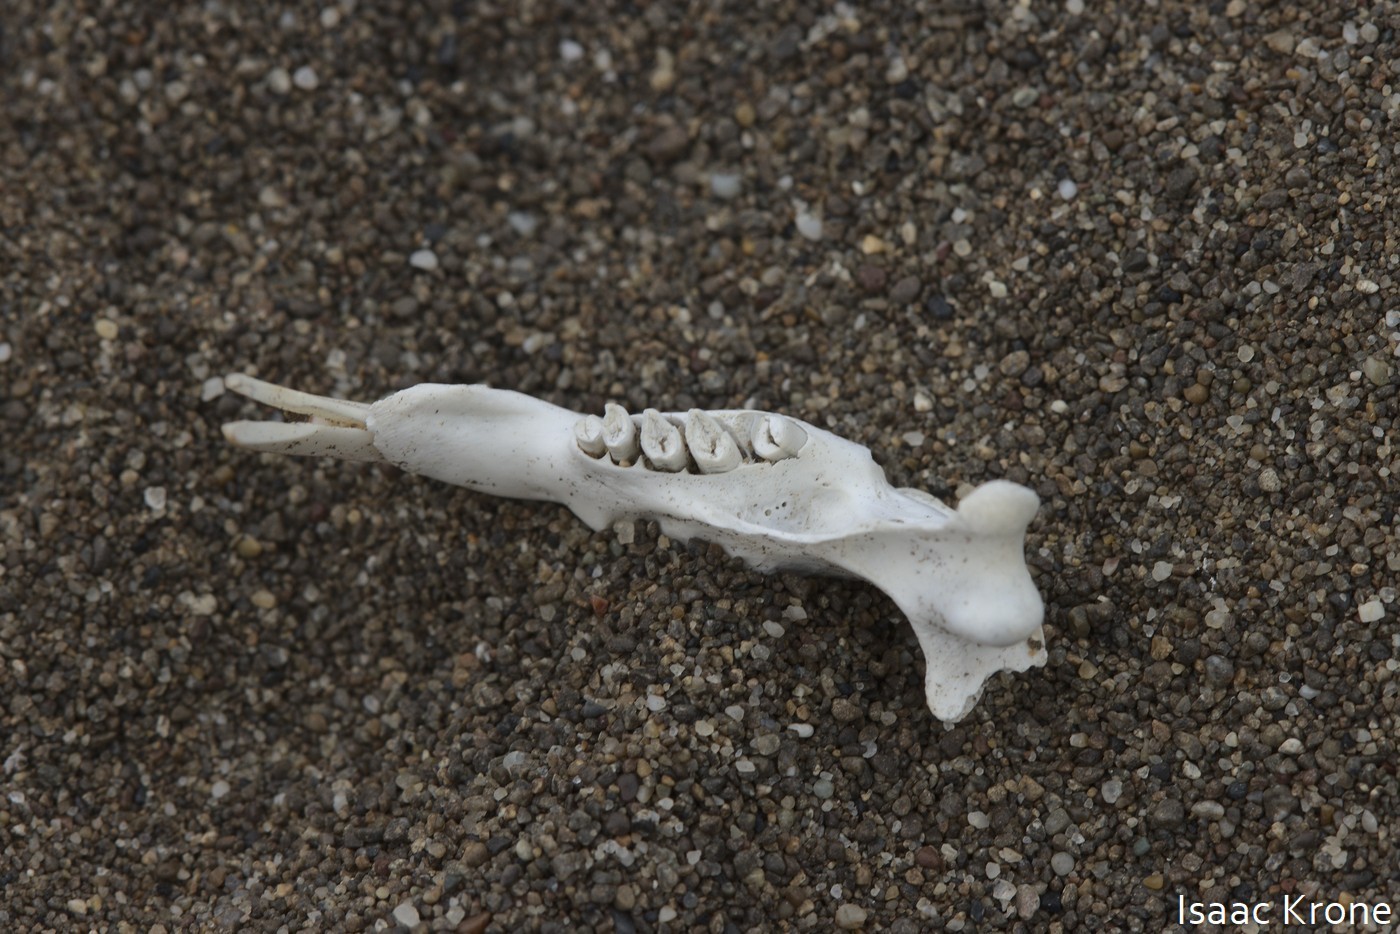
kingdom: Animalia
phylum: Chordata
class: Mammalia
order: Rodentia
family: Geomyidae
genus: Thomomys
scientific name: Thomomys bottae
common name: Botta's pocket gopher
